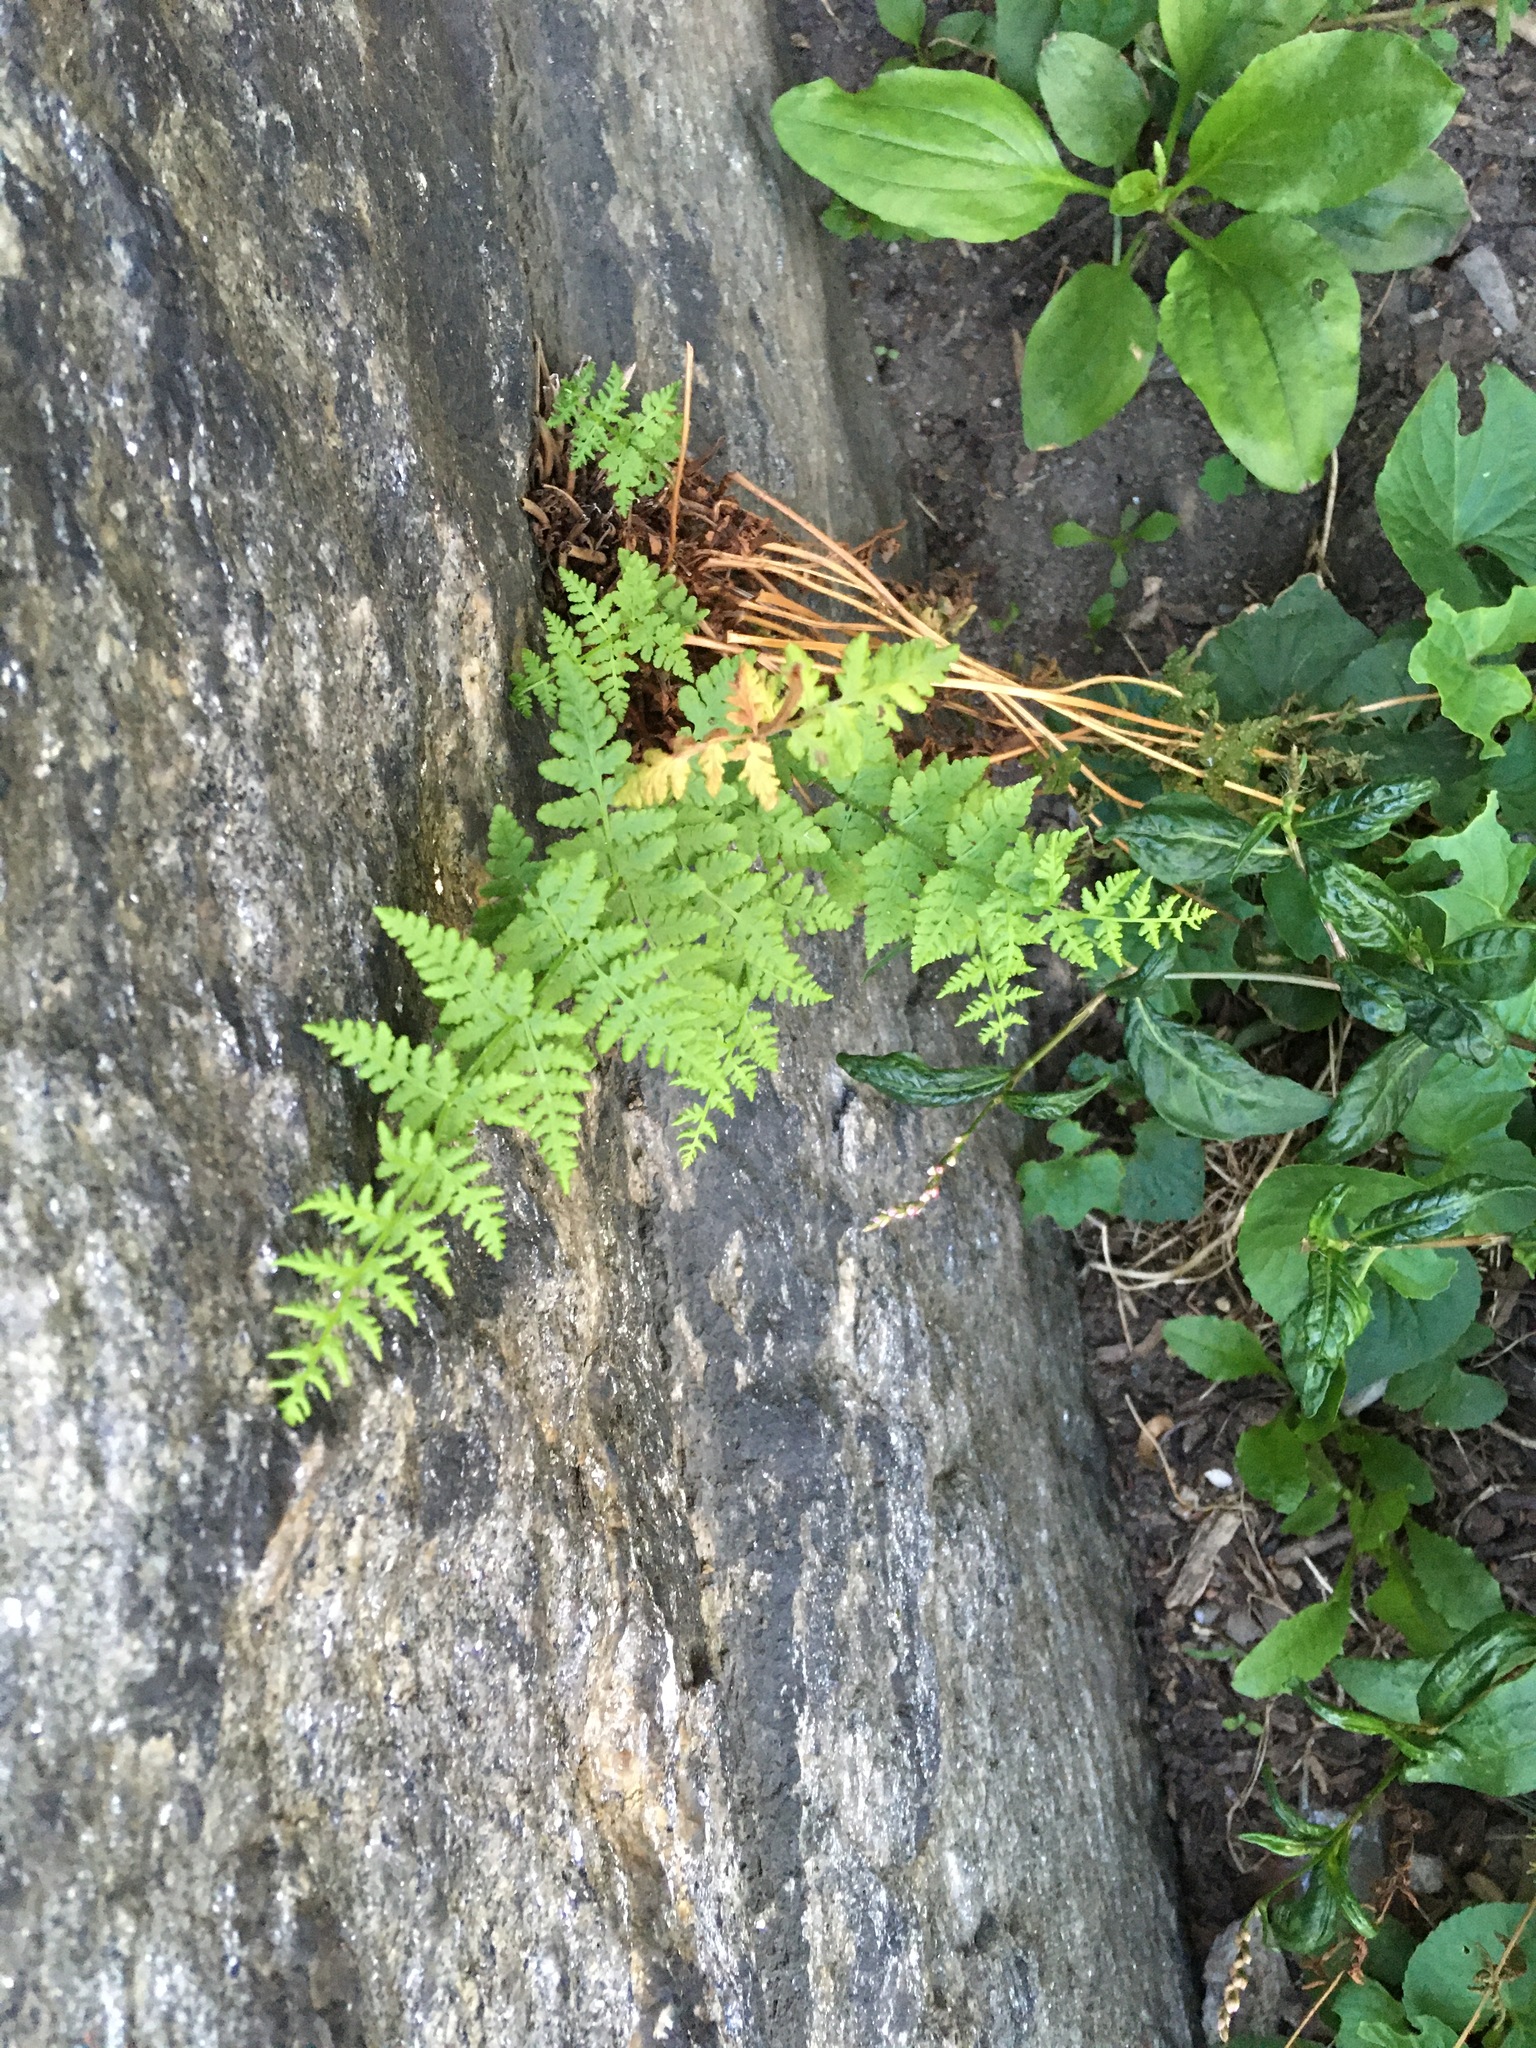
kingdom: Plantae
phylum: Tracheophyta
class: Polypodiopsida
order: Polypodiales
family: Woodsiaceae
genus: Physematium
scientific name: Physematium obtusum
